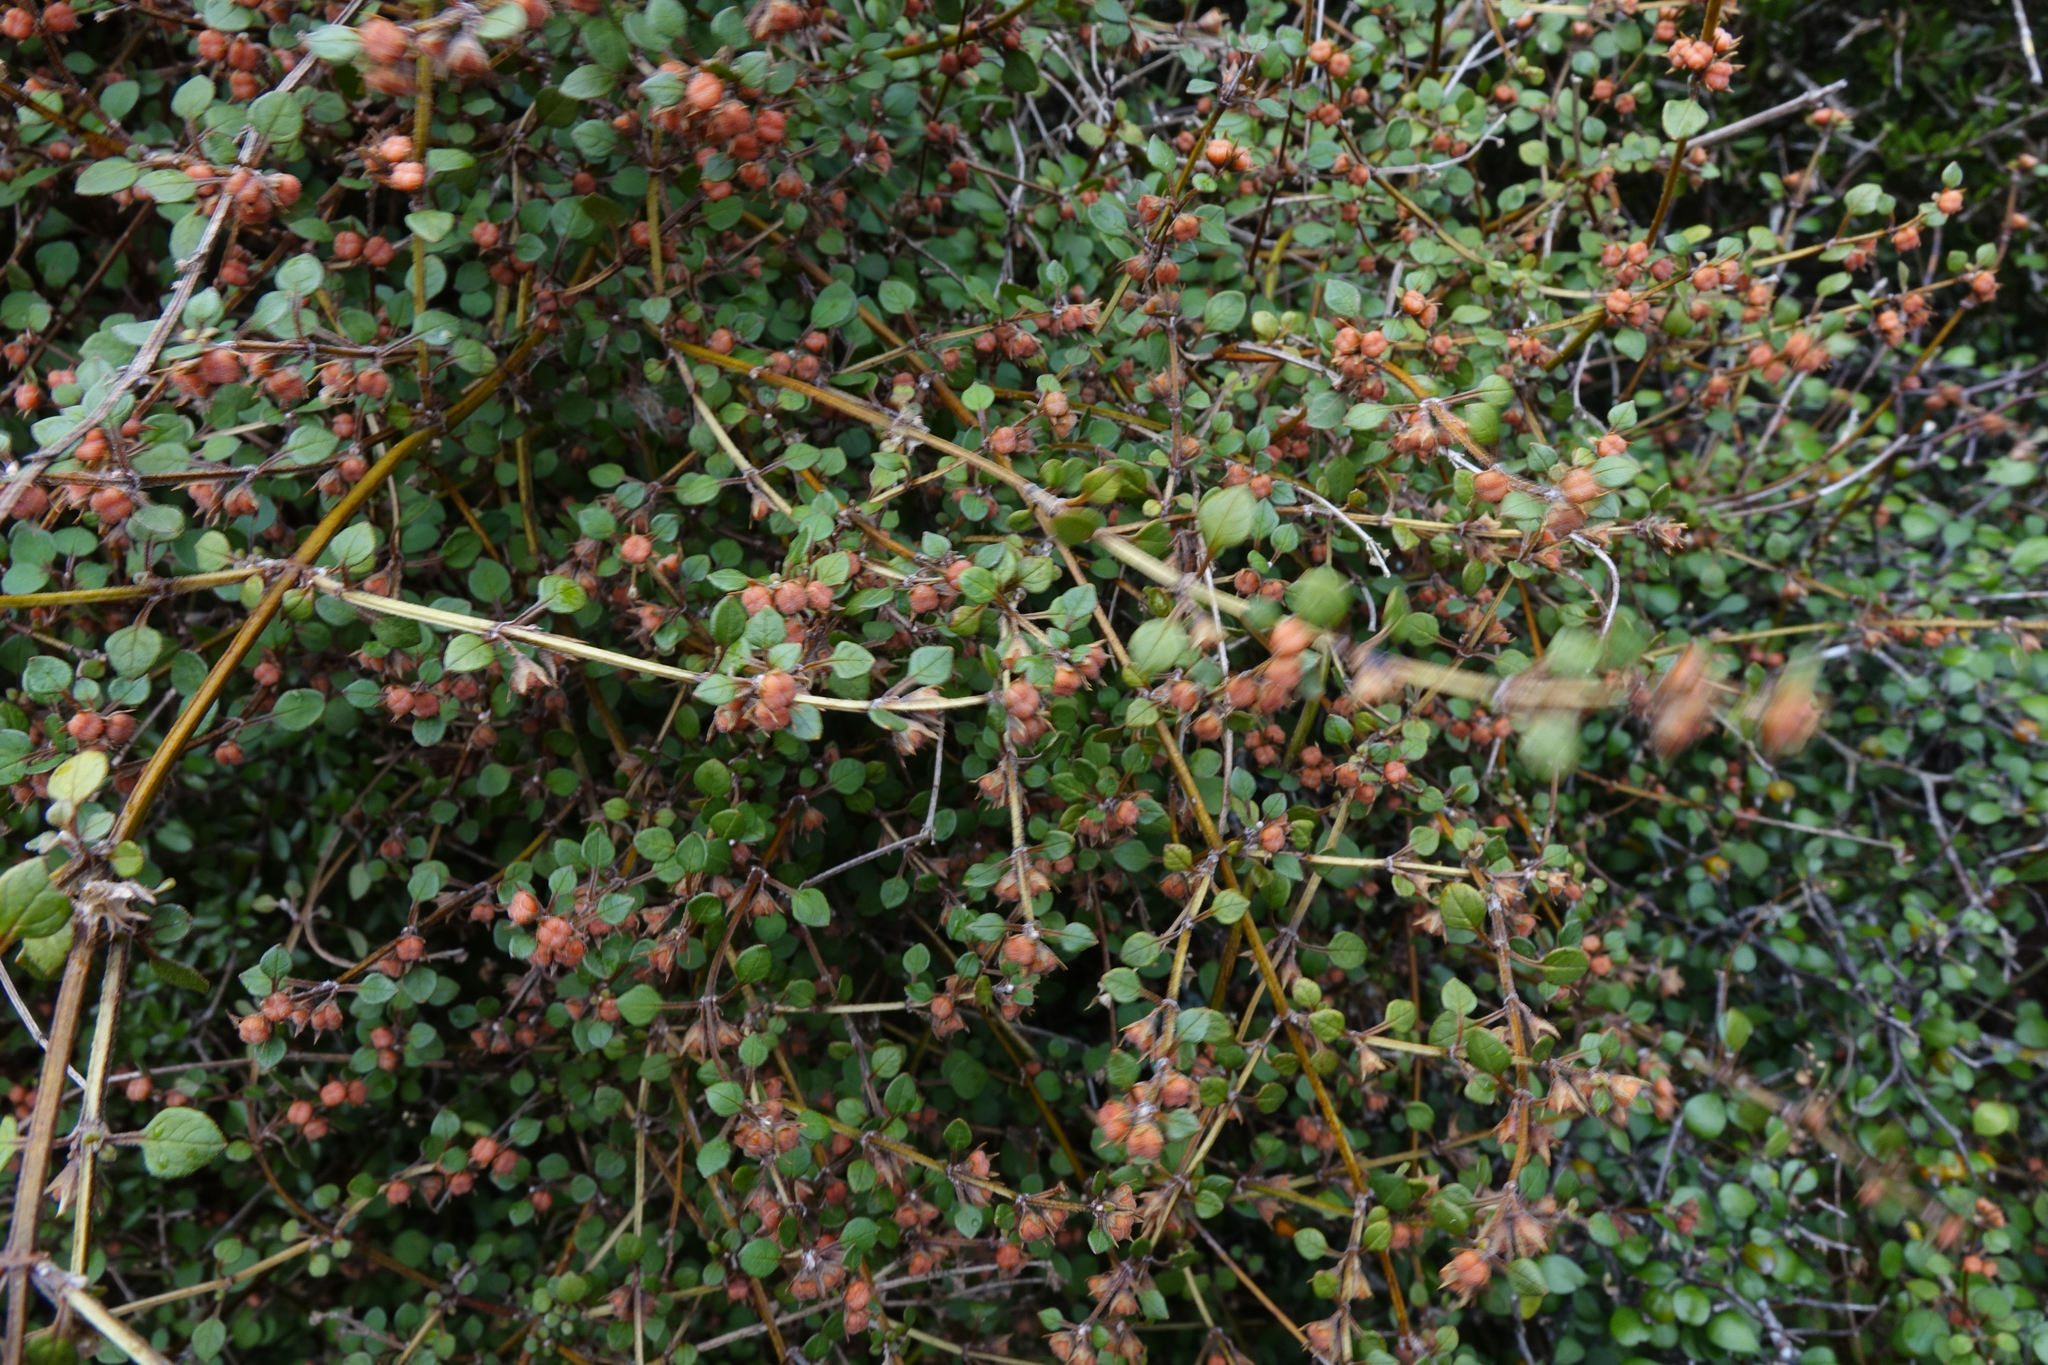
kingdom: Plantae
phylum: Tracheophyta
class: Magnoliopsida
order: Lamiales
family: Lamiaceae
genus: Teucrium
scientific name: Teucrium parvifolium
